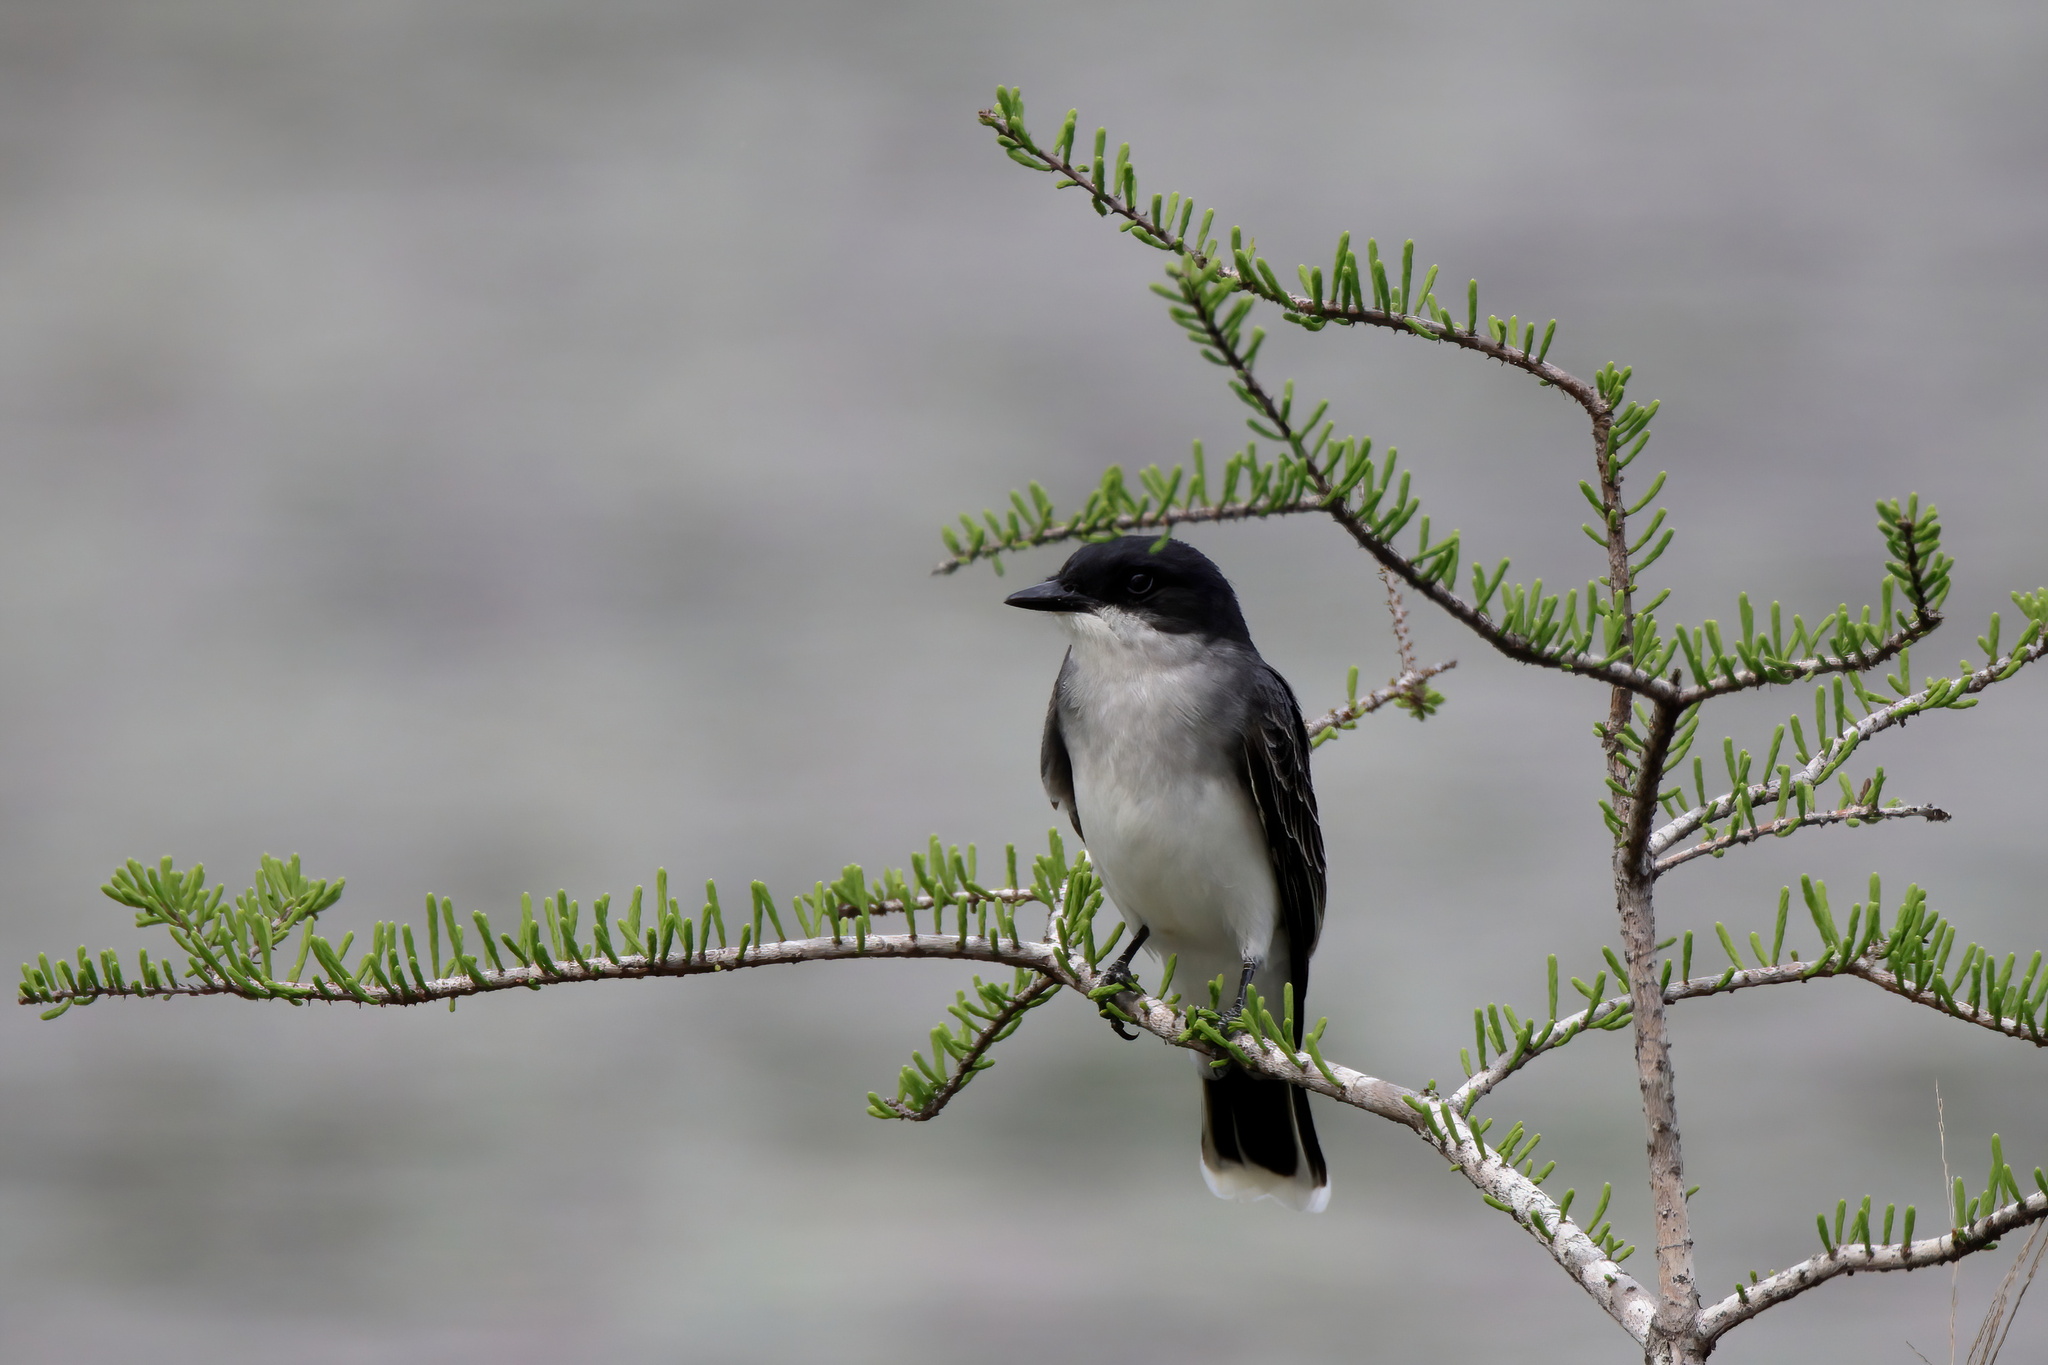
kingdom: Animalia
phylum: Chordata
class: Aves
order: Passeriformes
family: Tyrannidae
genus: Tyrannus
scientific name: Tyrannus tyrannus
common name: Eastern kingbird
